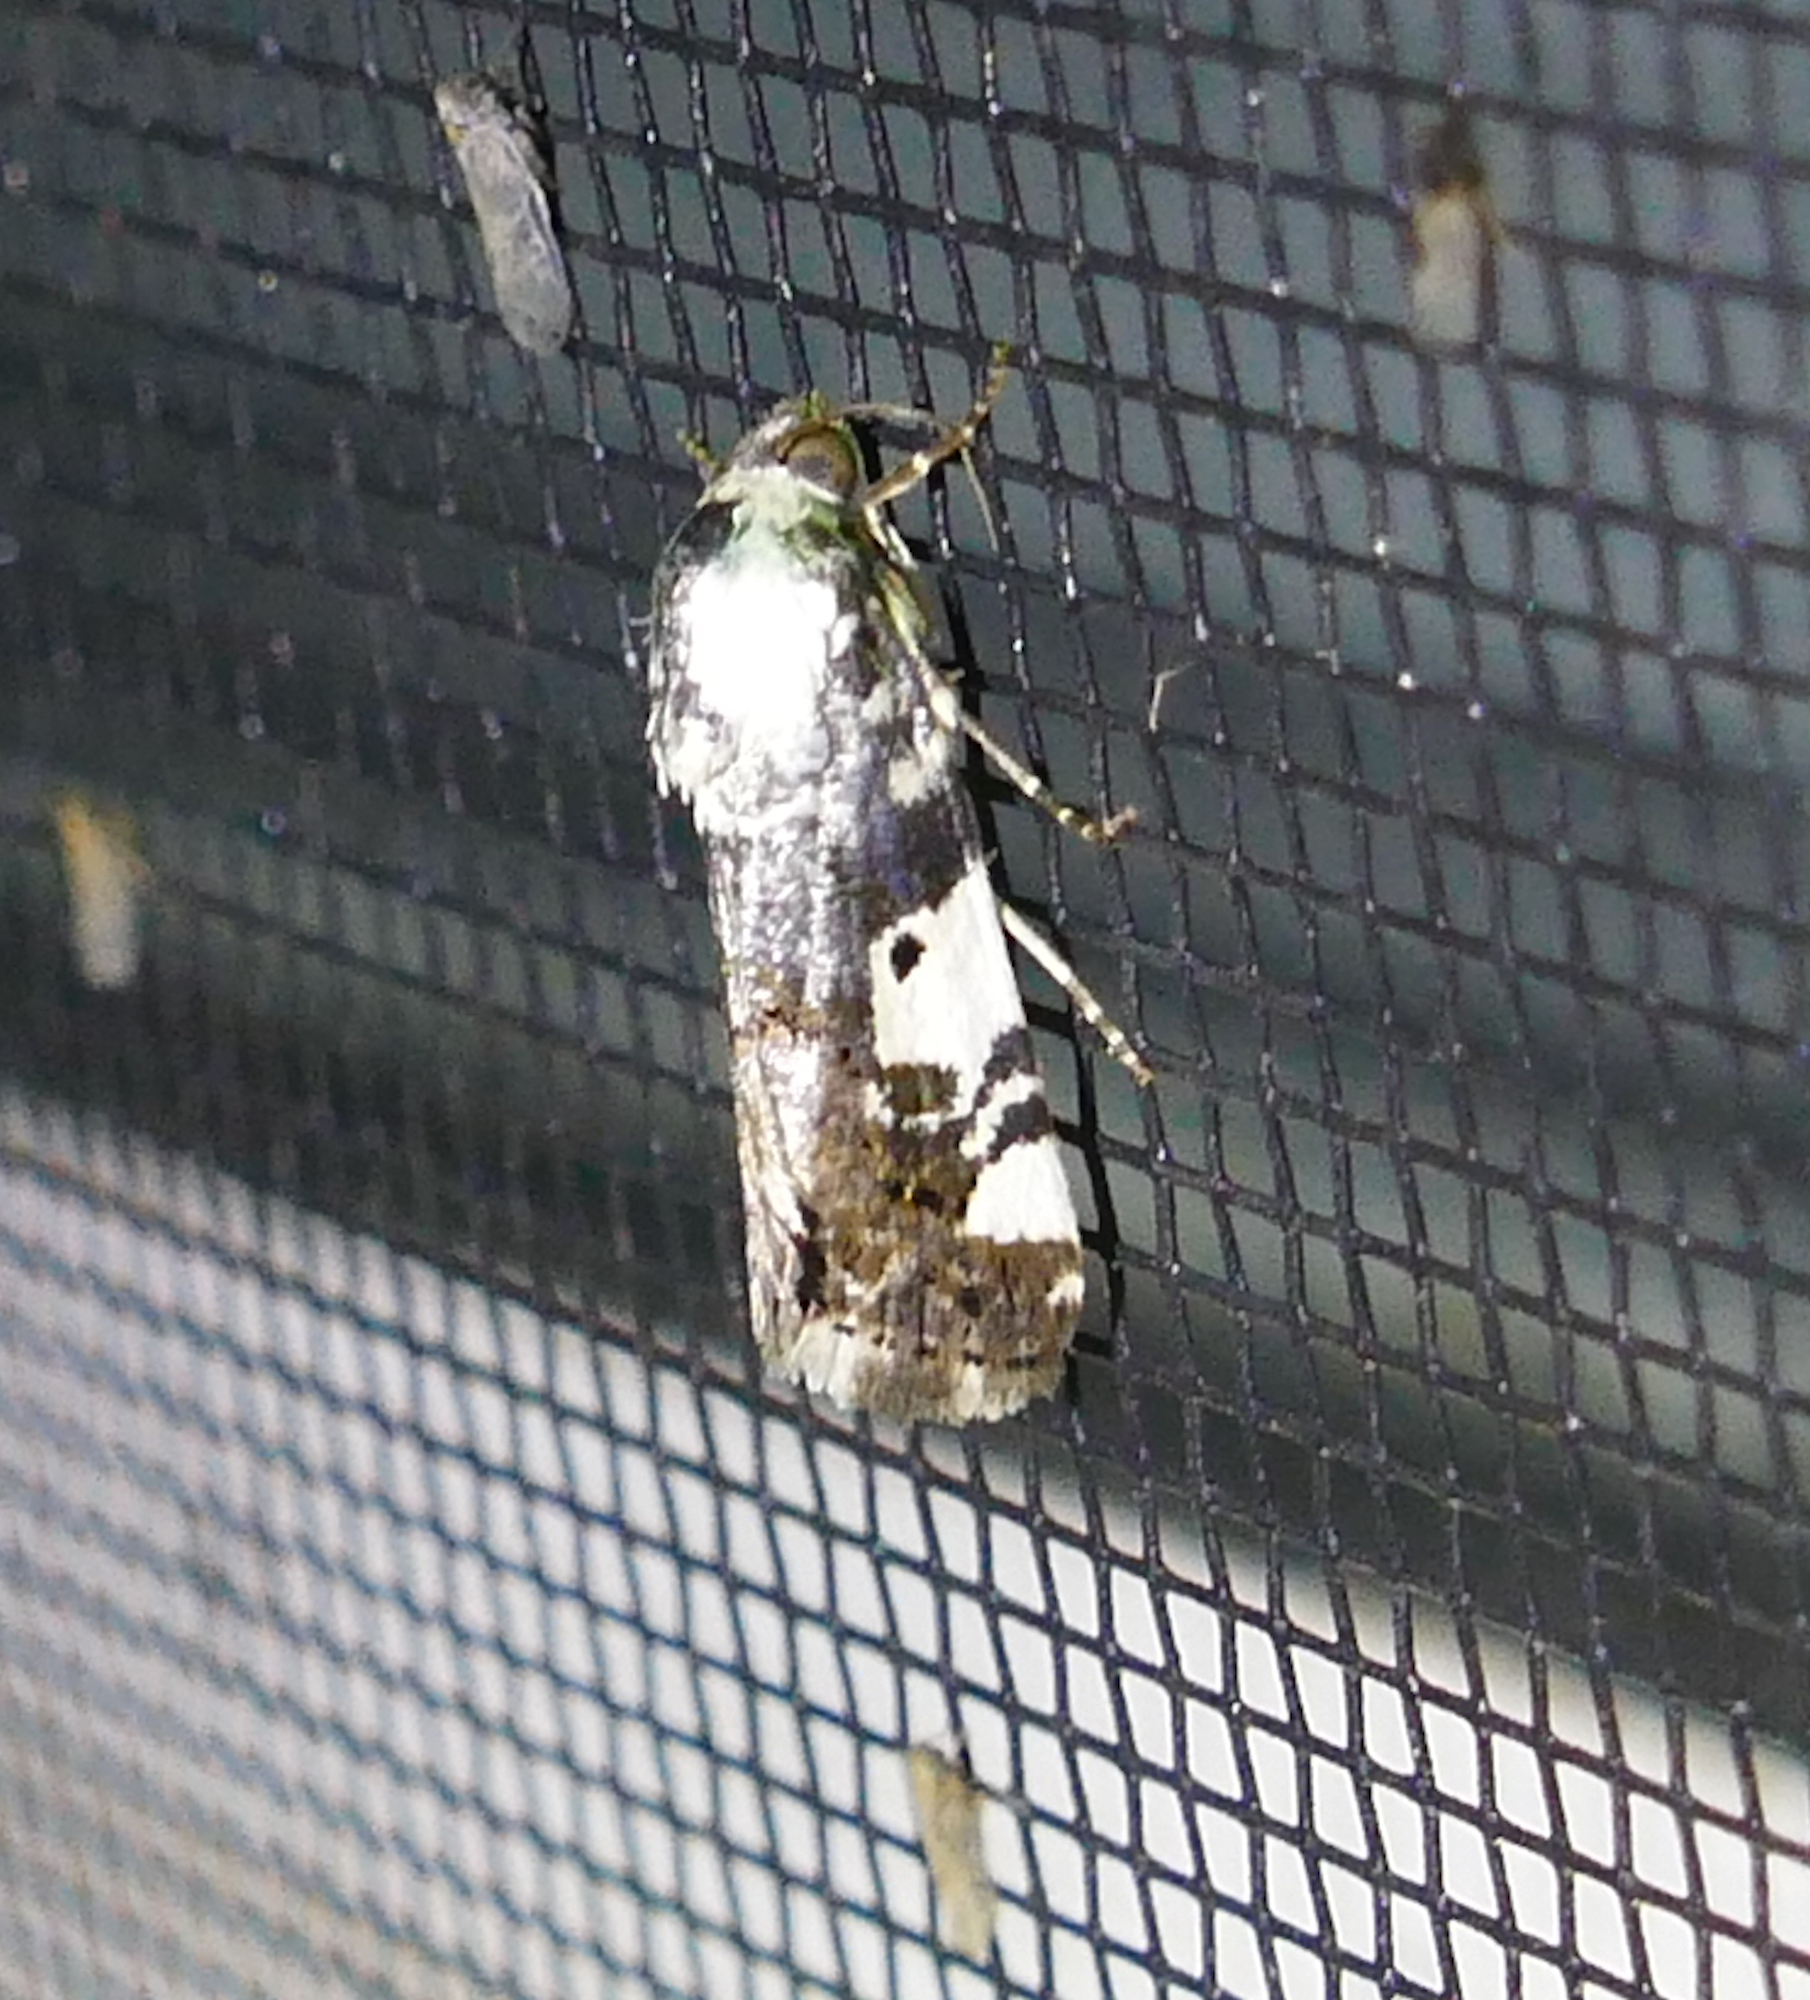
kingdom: Animalia
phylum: Arthropoda
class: Insecta
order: Lepidoptera
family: Noctuidae
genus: Acontia
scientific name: Acontia aprica
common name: Nun
